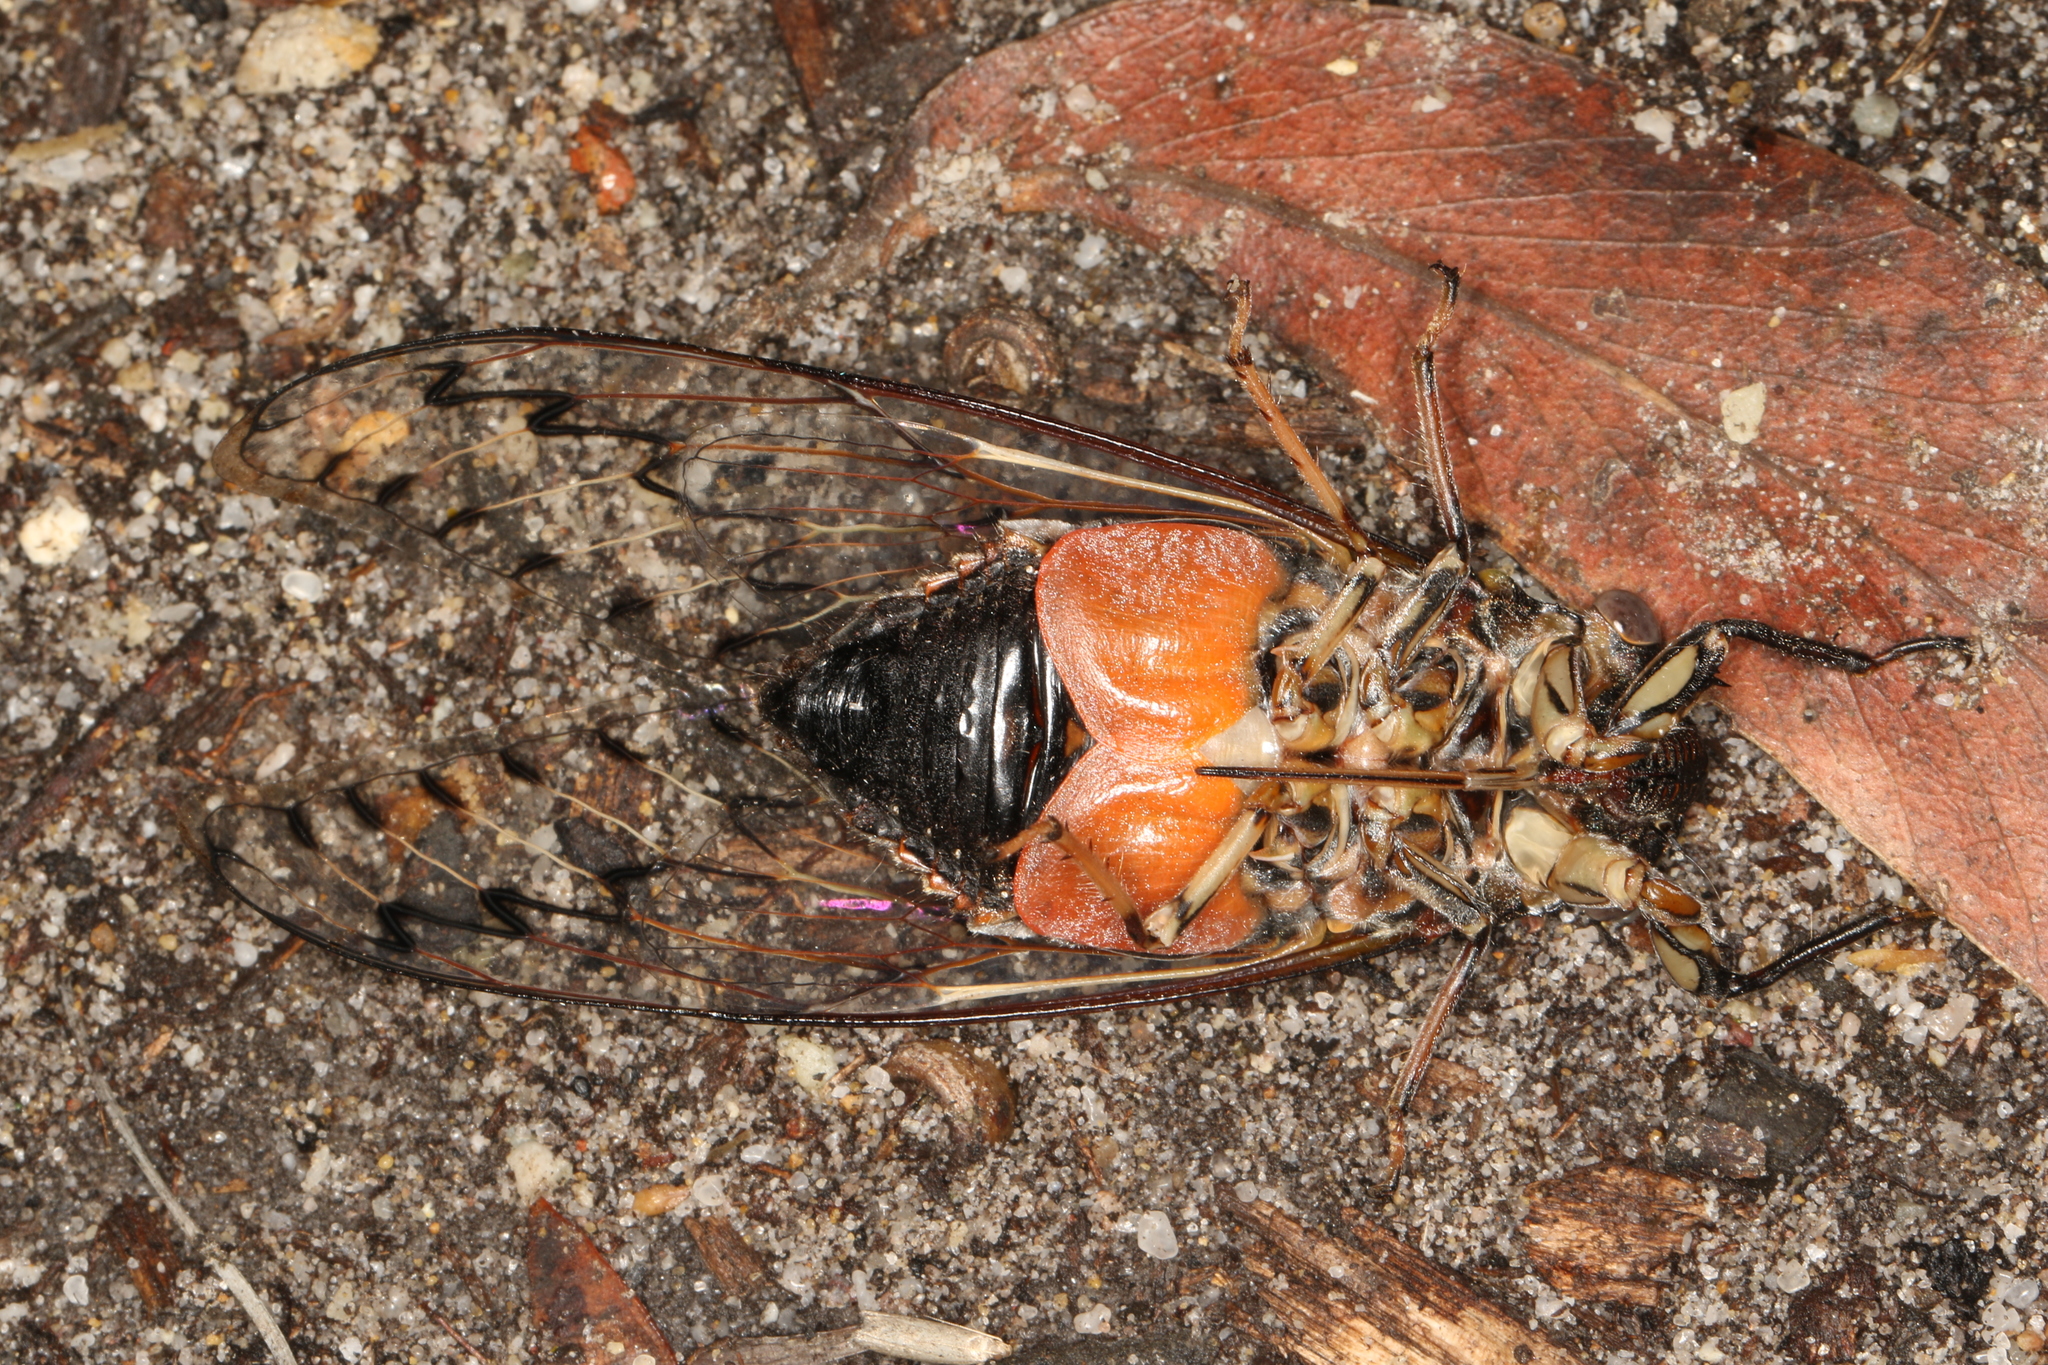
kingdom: Animalia
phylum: Arthropoda
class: Insecta
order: Hemiptera
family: Cicadidae
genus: Henicopsaltria
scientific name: Henicopsaltria eydouxii
